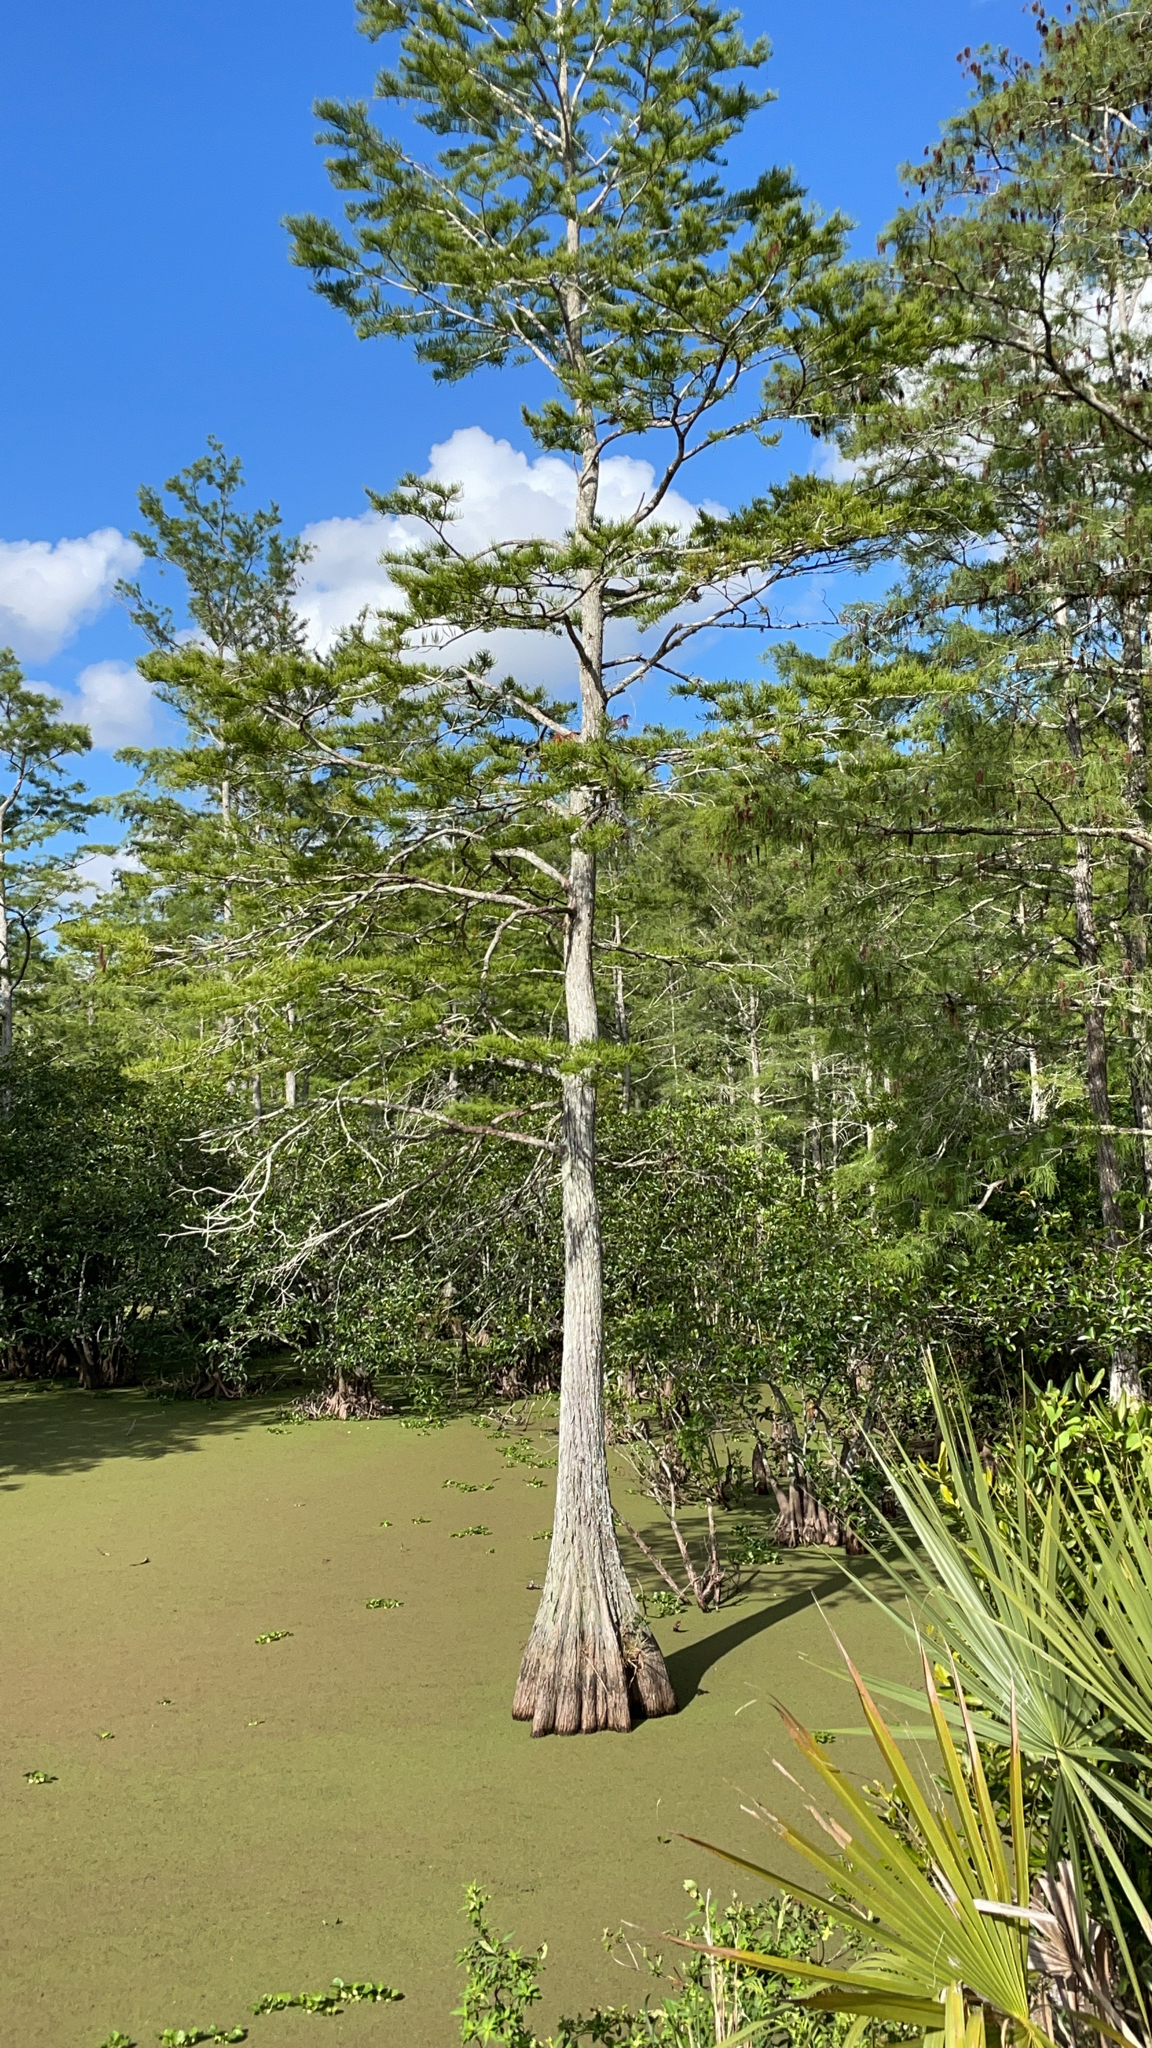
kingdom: Plantae
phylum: Tracheophyta
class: Pinopsida
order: Pinales
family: Cupressaceae
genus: Taxodium
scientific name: Taxodium distichum
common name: Bald cypress
